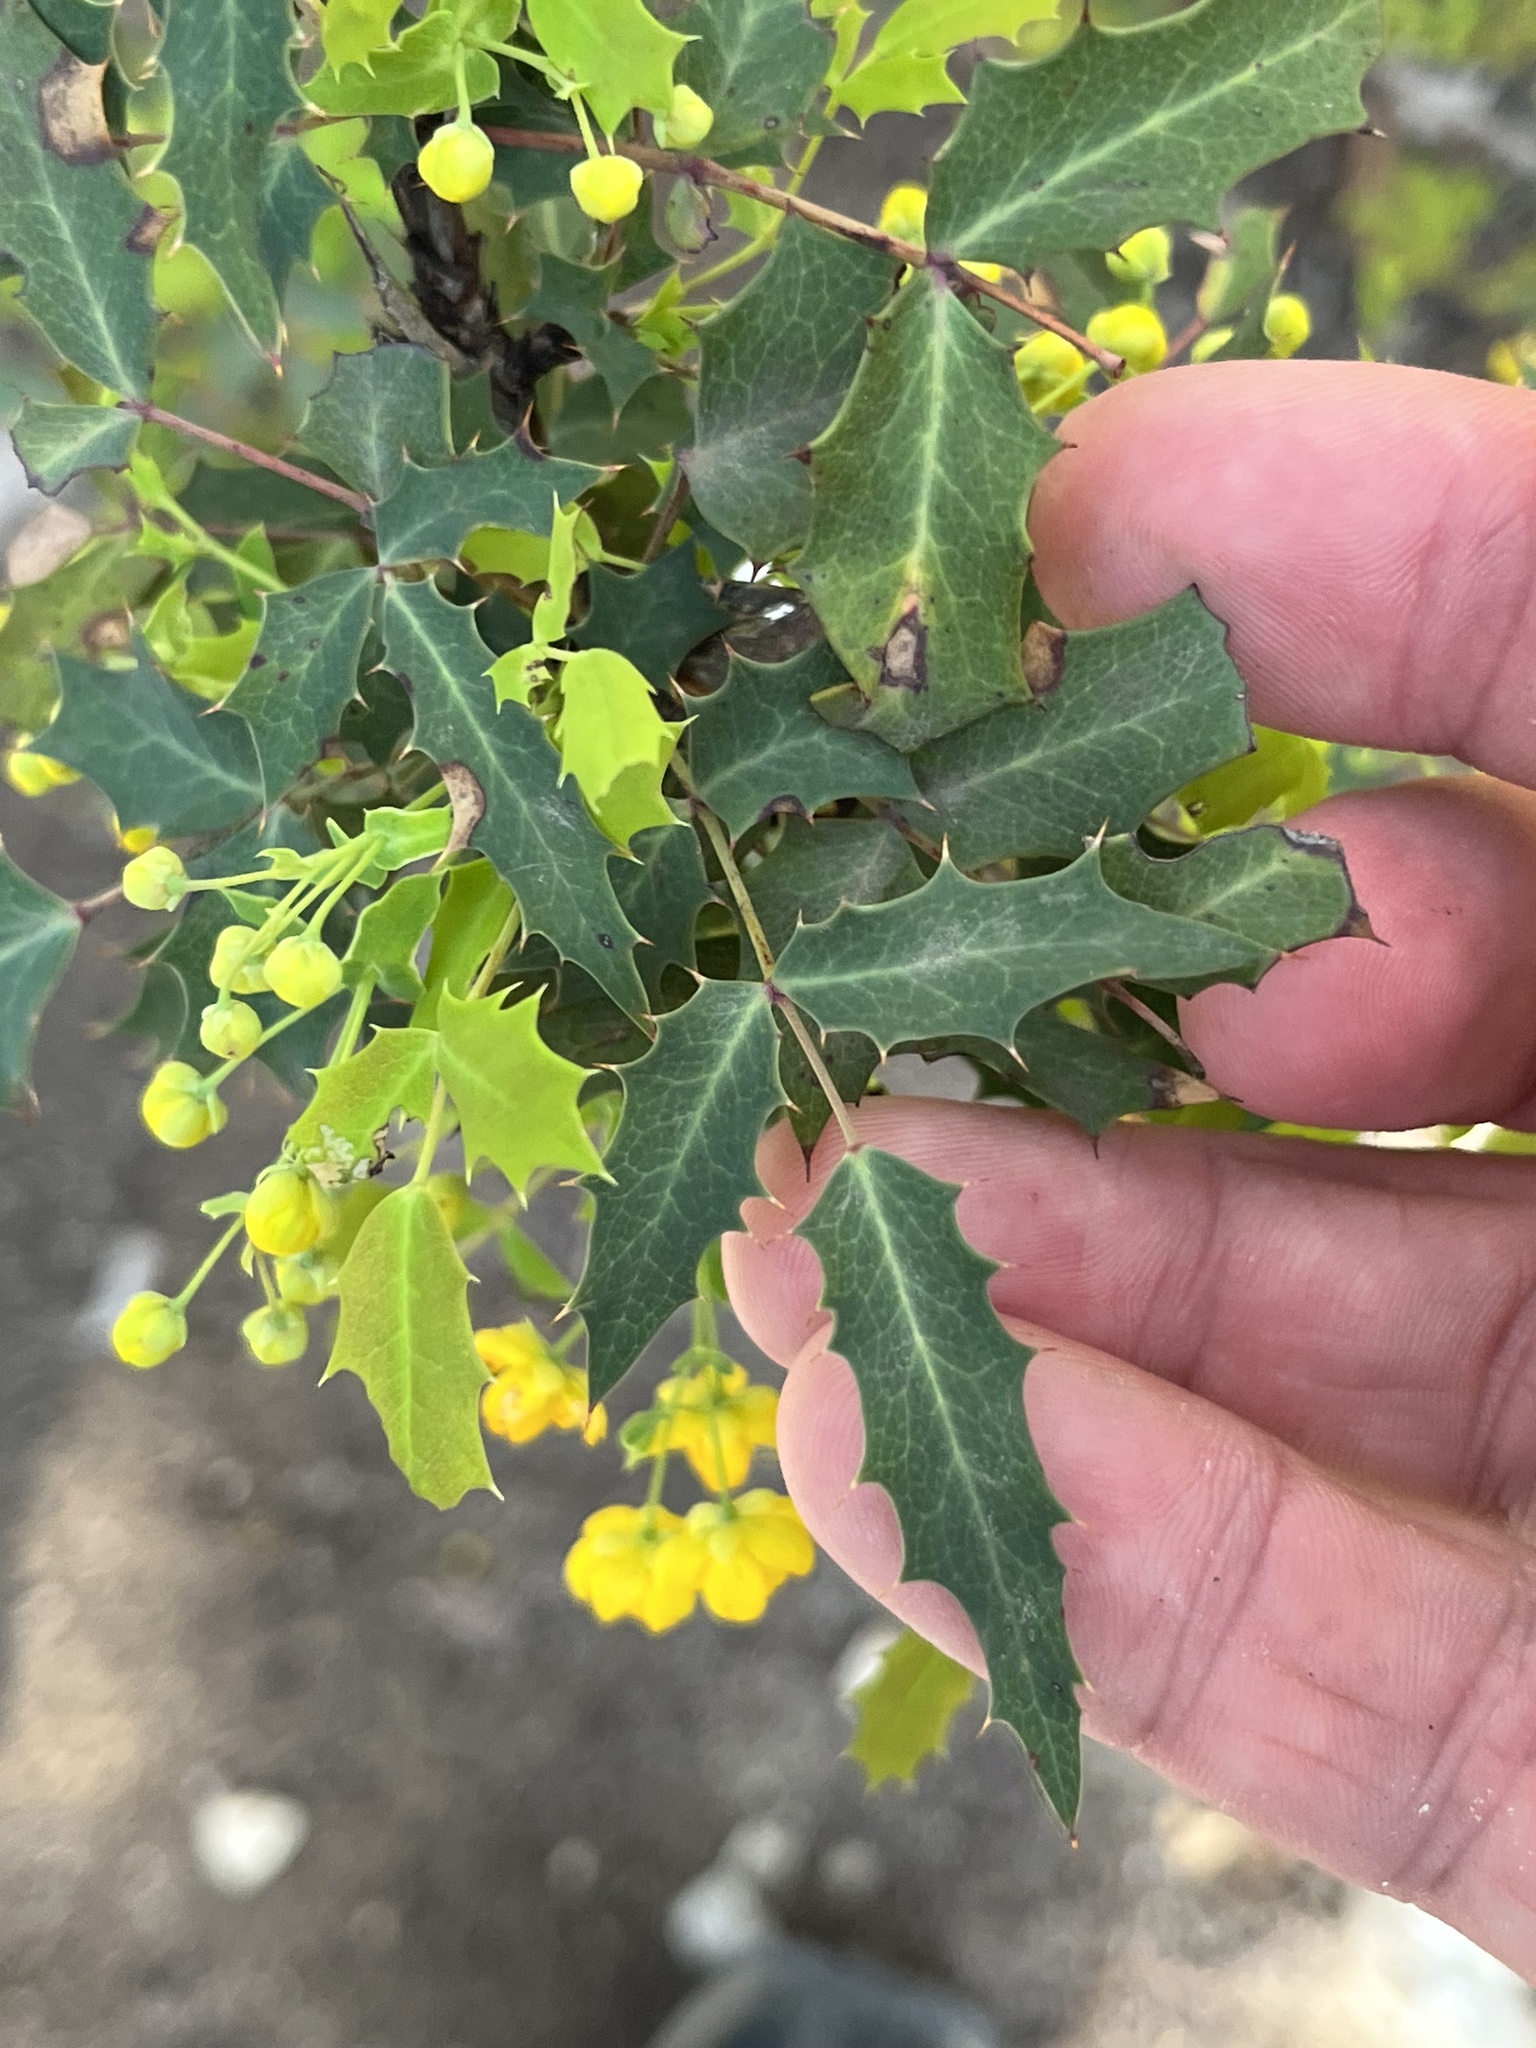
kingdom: Plantae
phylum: Tracheophyta
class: Magnoliopsida
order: Ranunculales
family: Berberidaceae
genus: Berberis
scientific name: Berberis swaseyi
